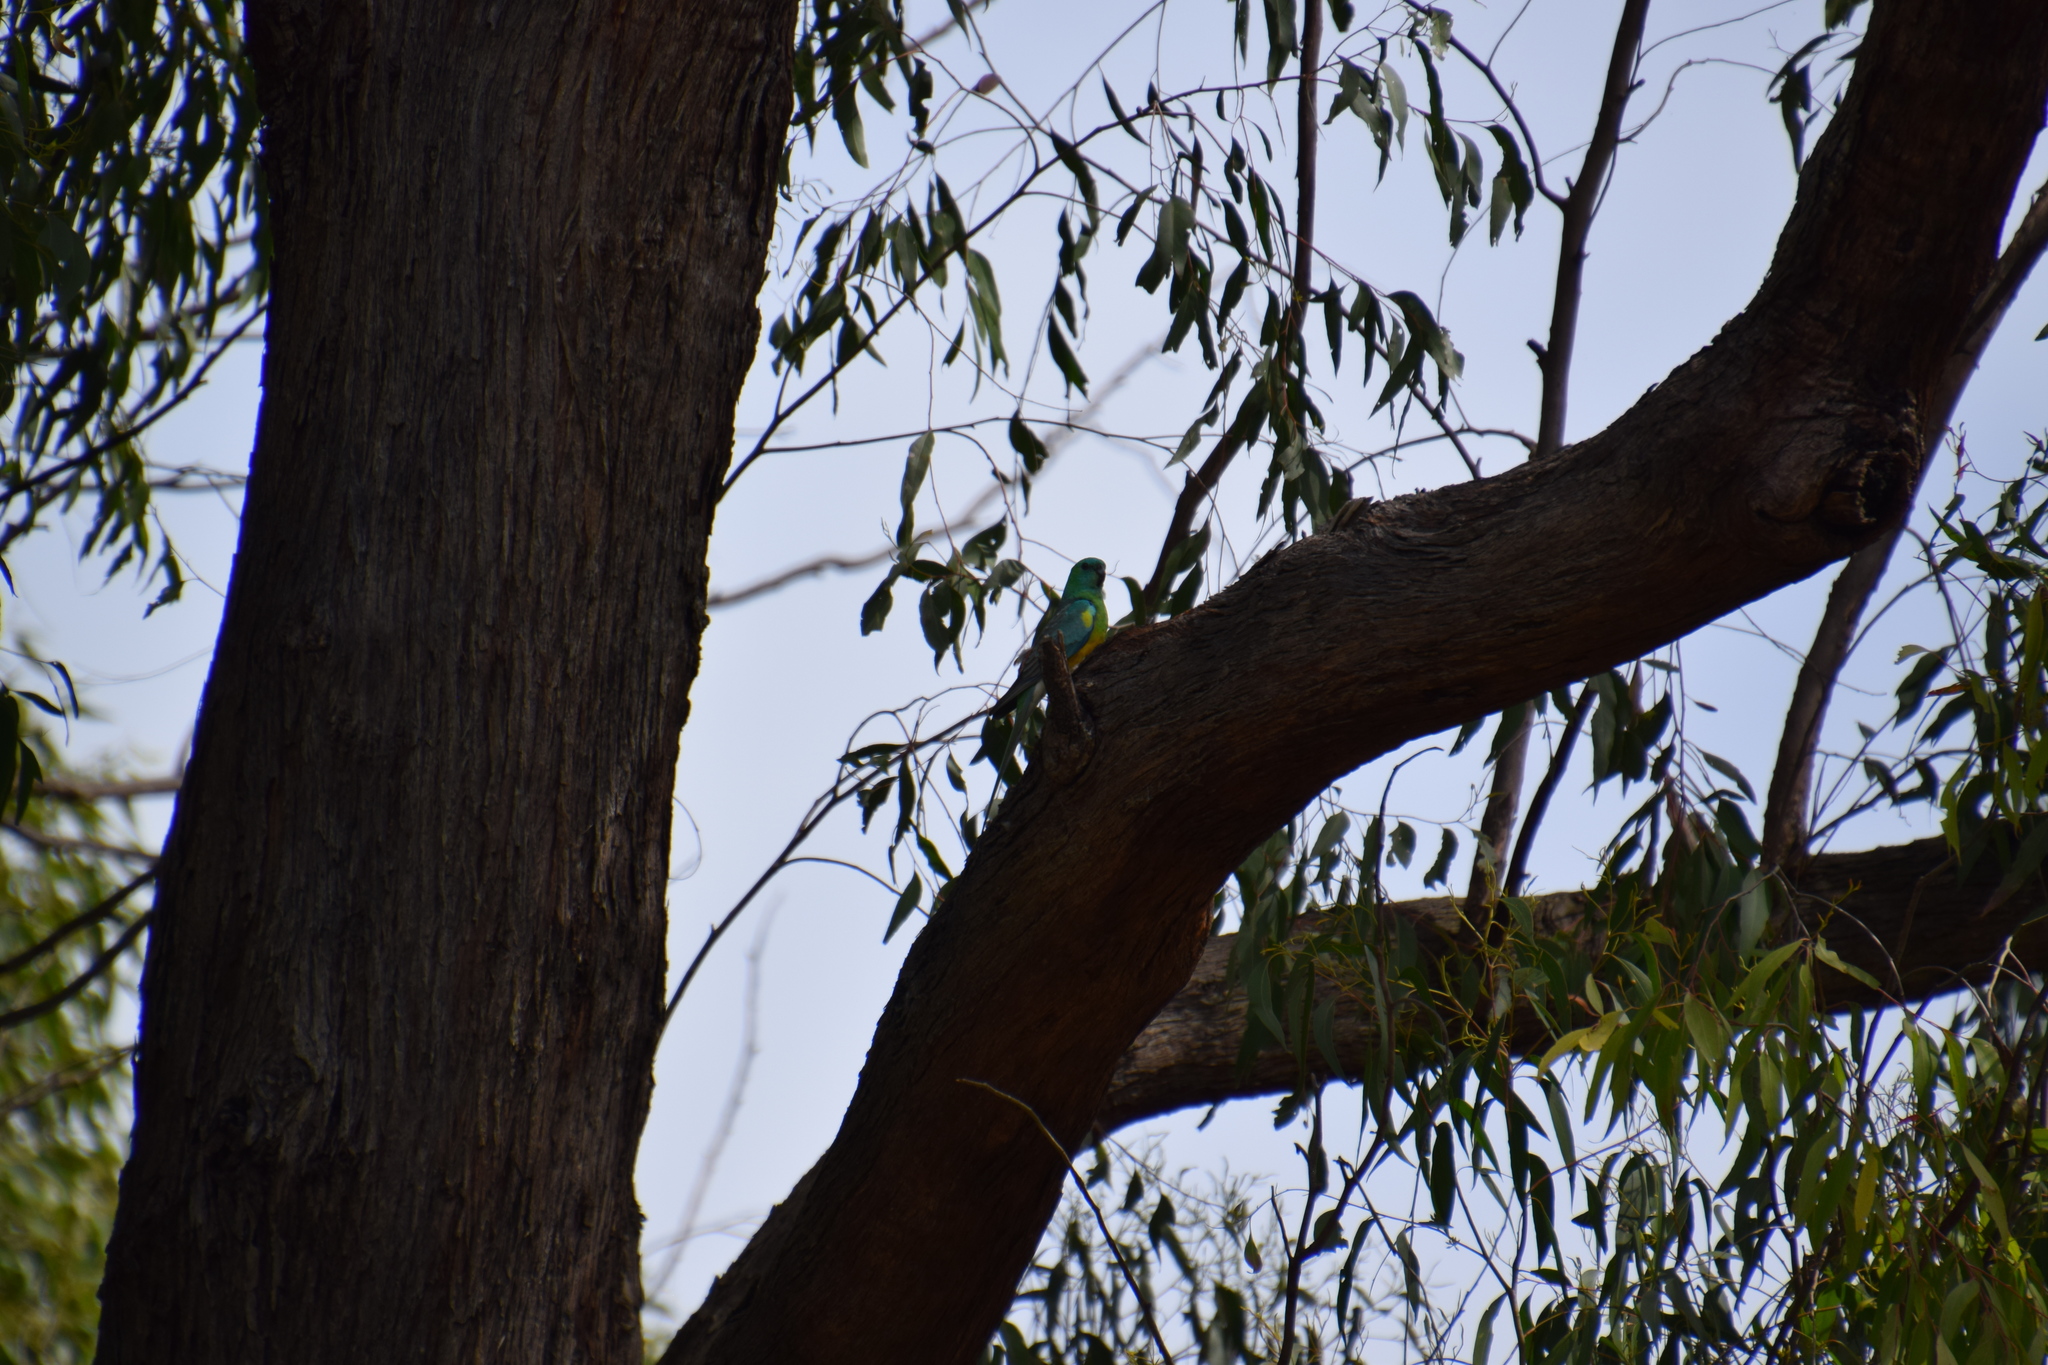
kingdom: Animalia
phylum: Chordata
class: Aves
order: Psittaciformes
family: Psittacidae
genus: Psephotus
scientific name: Psephotus haematonotus
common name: Red-rumped parrot
